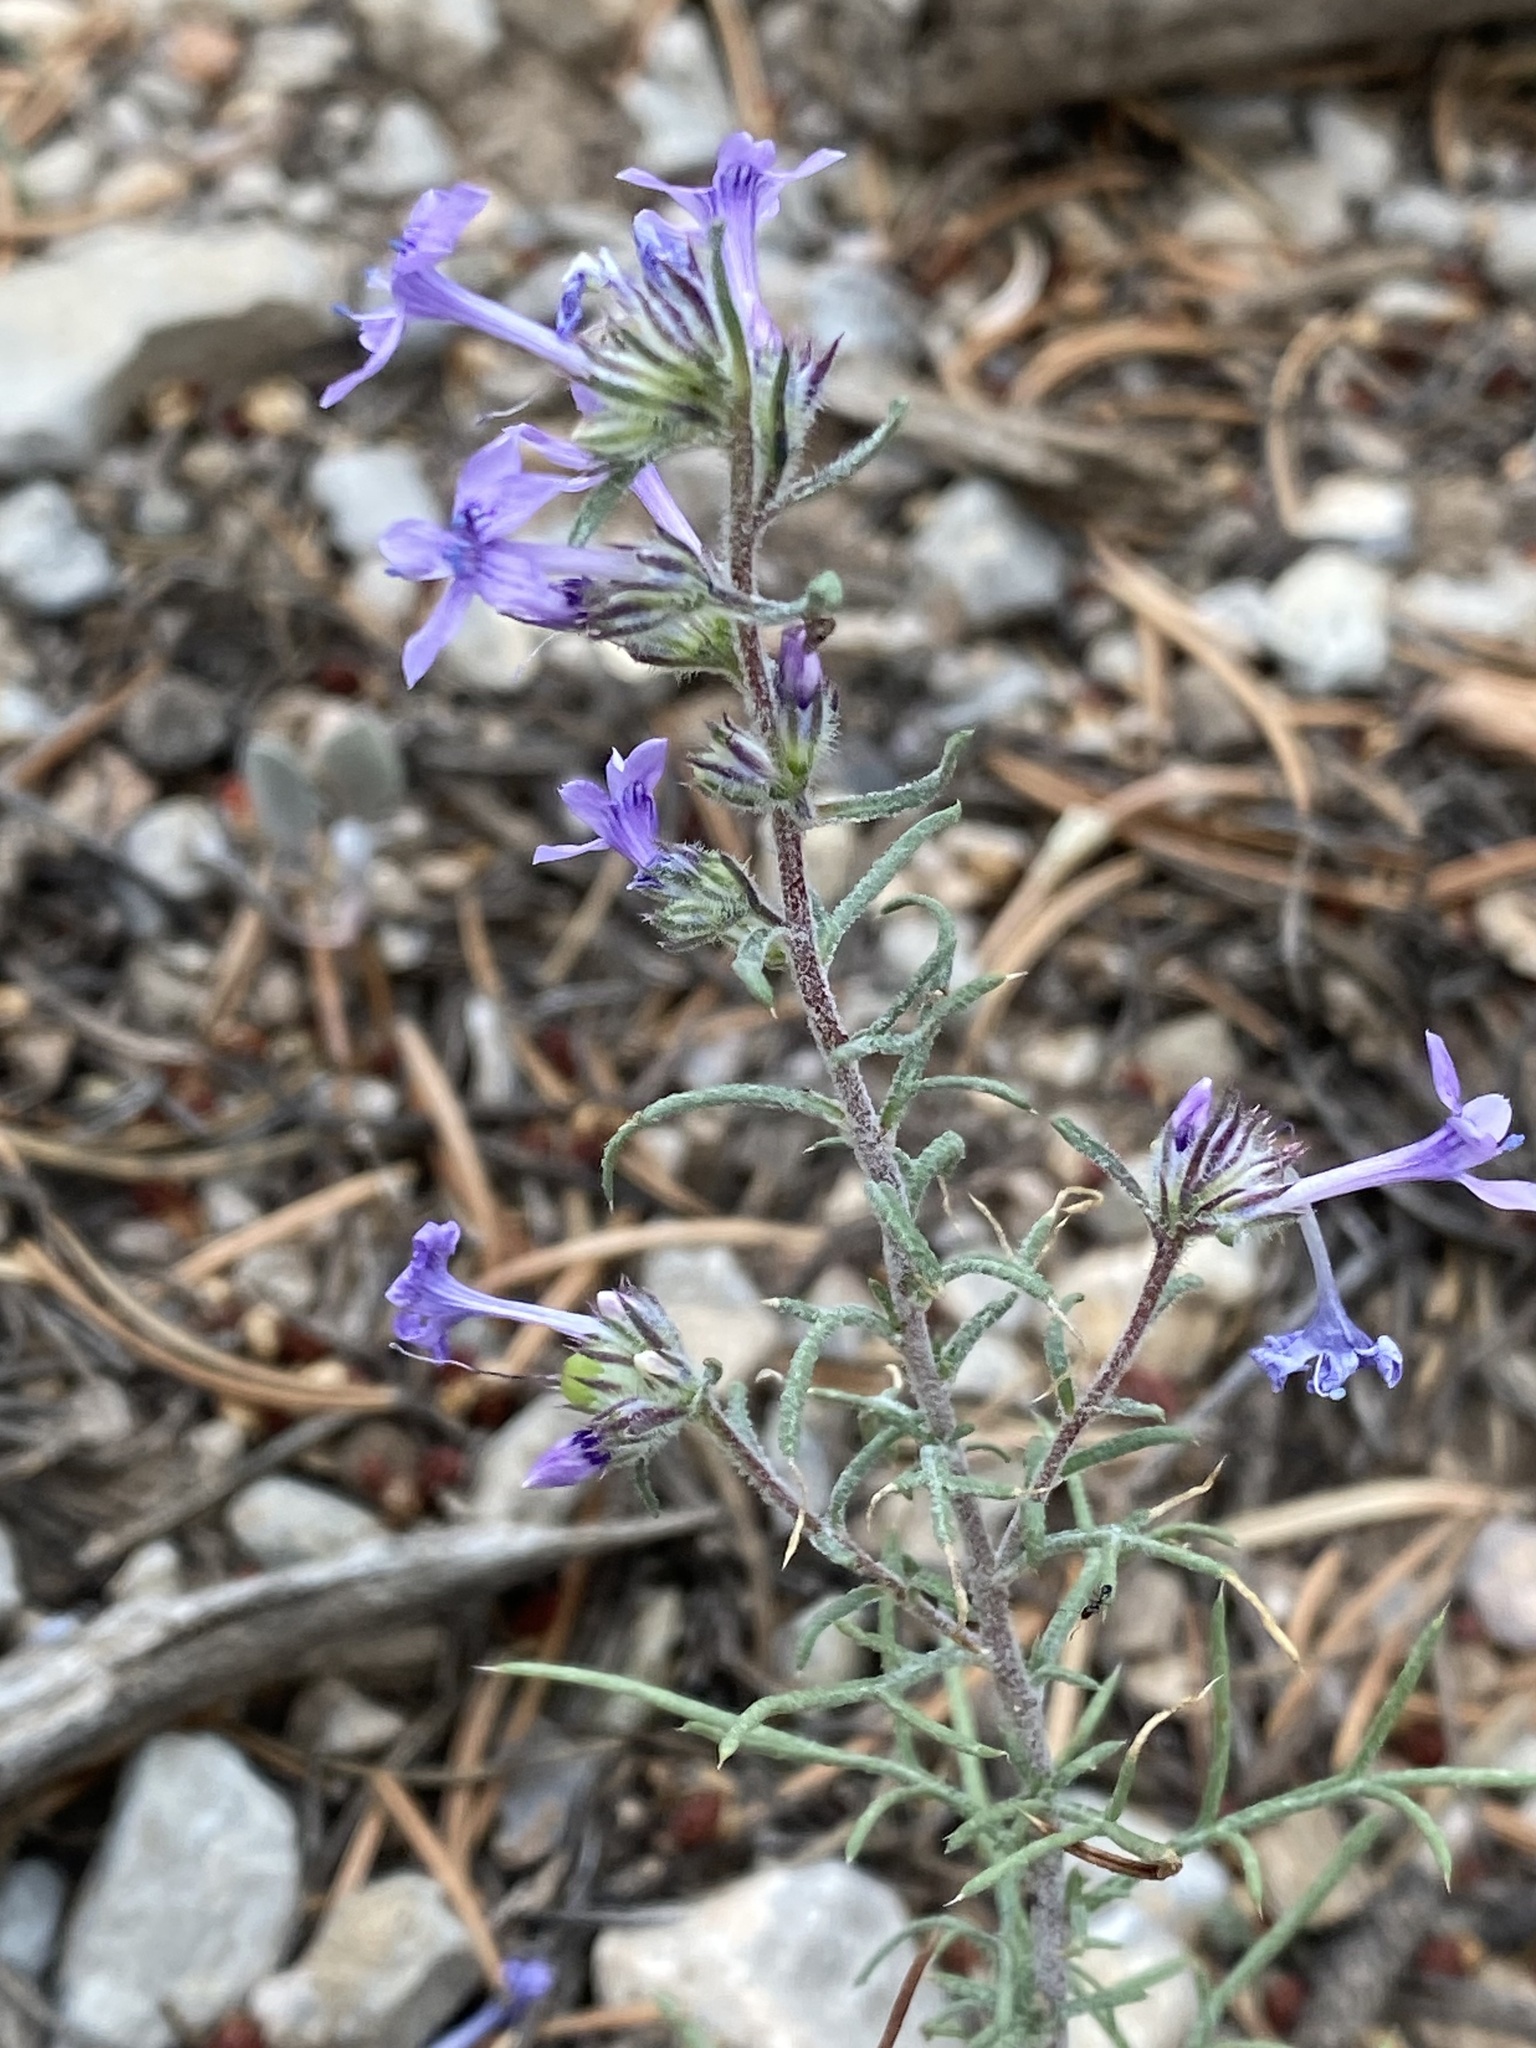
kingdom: Plantae
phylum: Tracheophyta
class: Magnoliopsida
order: Ericales
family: Polemoniaceae
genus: Ipomopsis
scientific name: Ipomopsis multiflora
